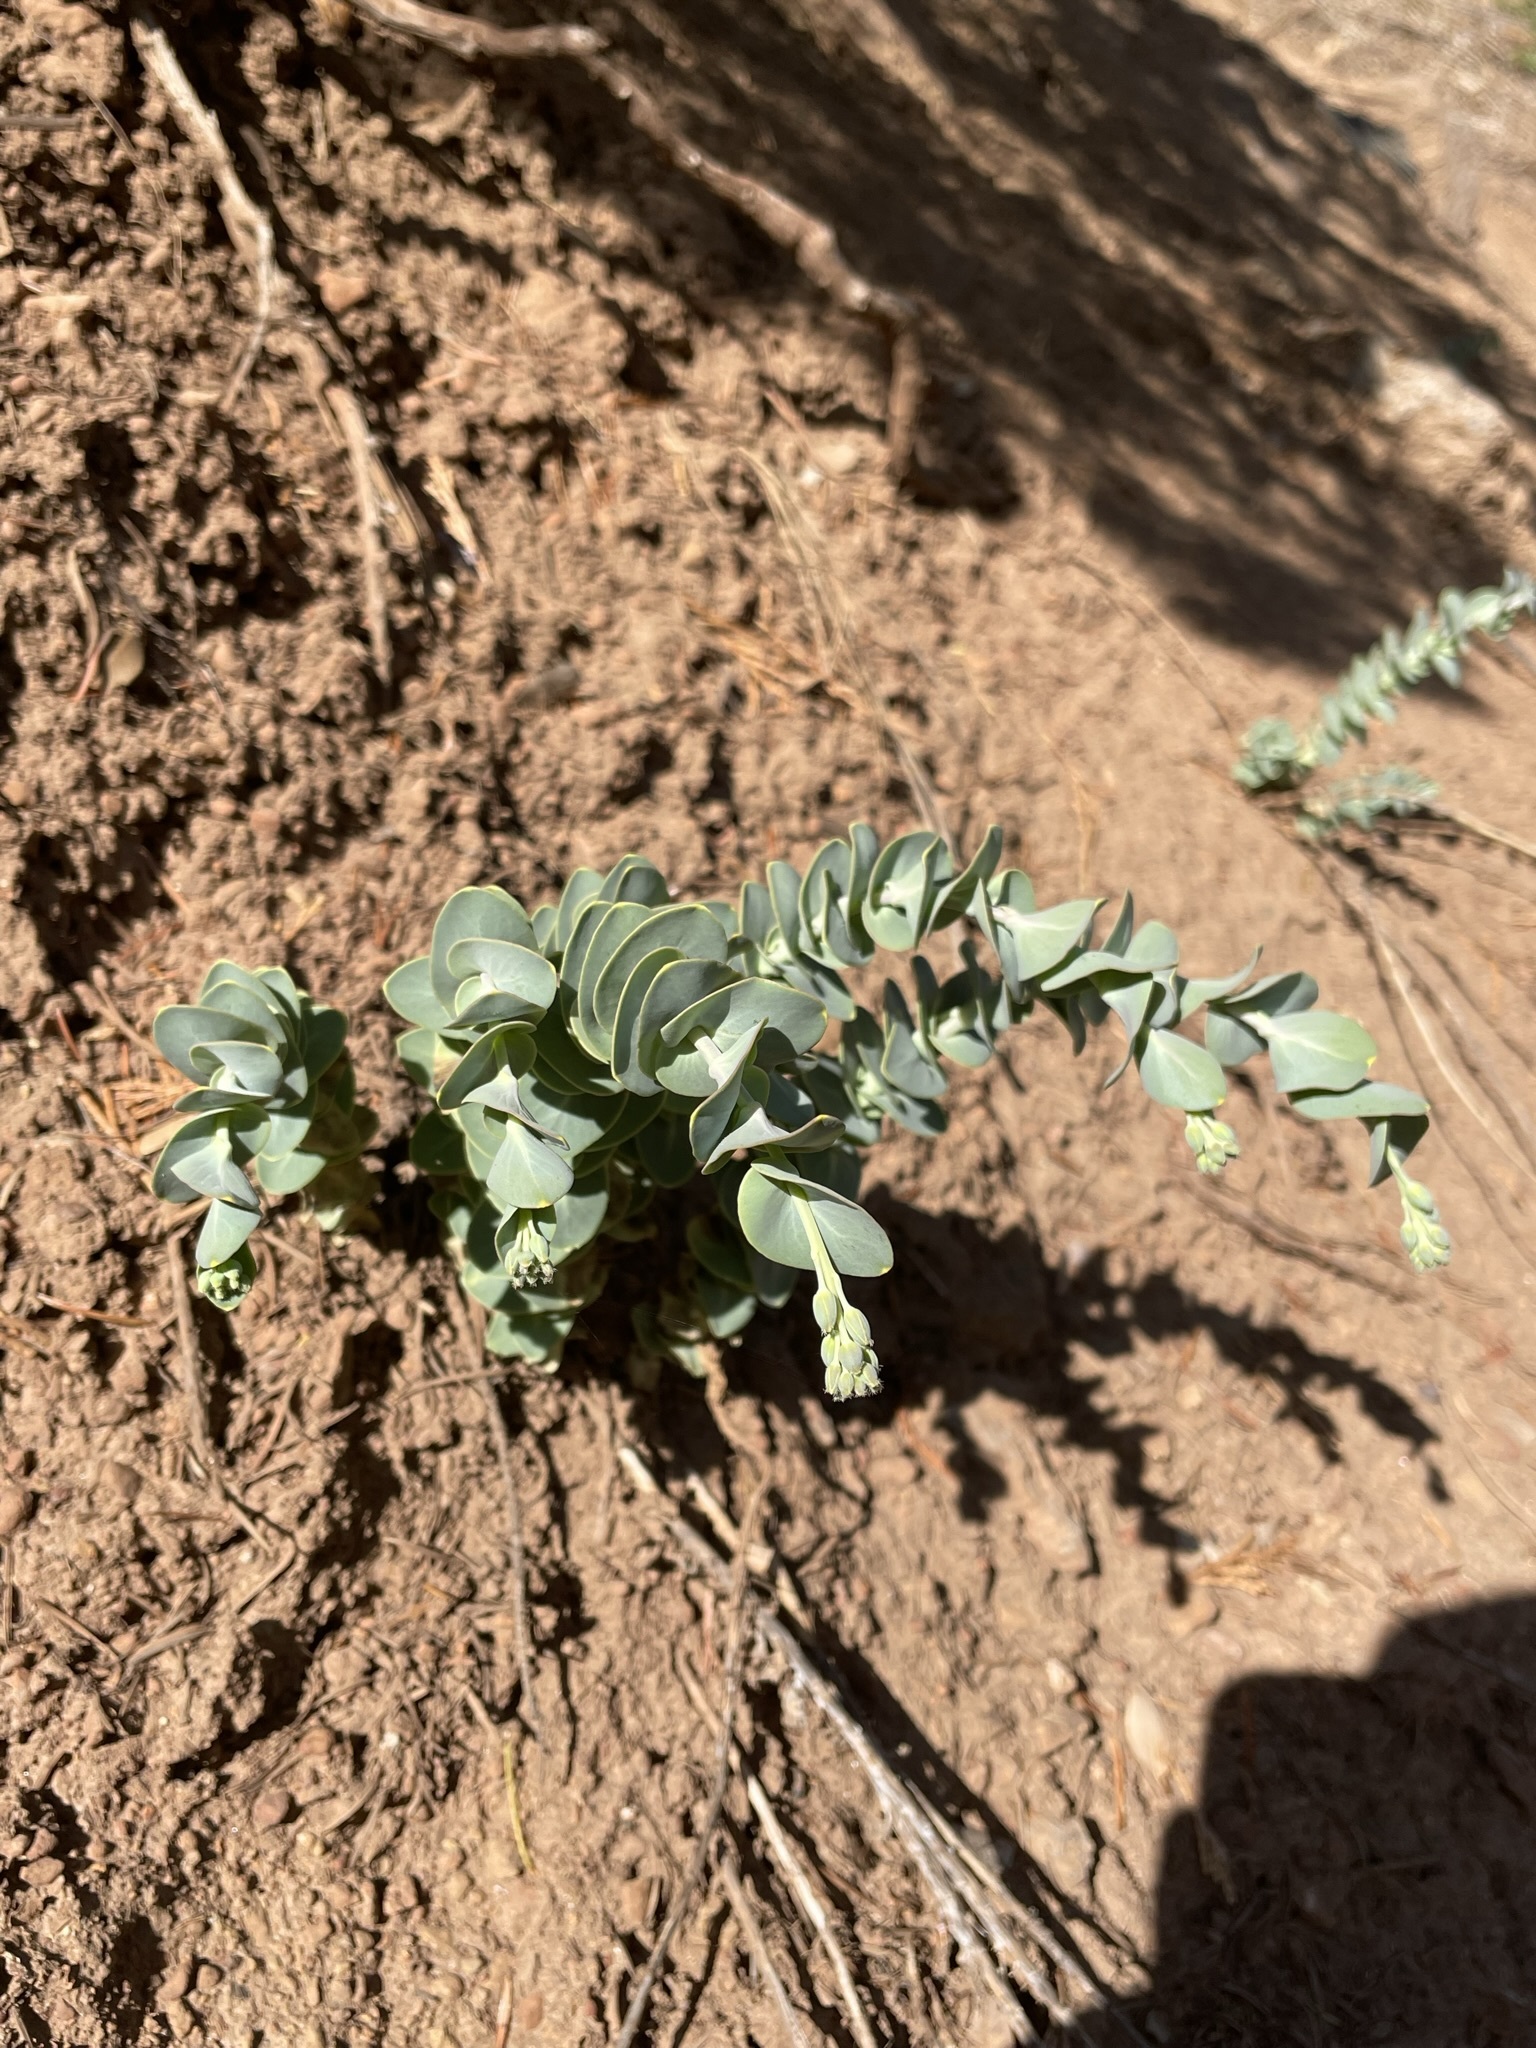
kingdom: Plantae
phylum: Tracheophyta
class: Magnoliopsida
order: Brassicales
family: Brassicaceae
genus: Streptanthus
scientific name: Streptanthus barbatus
